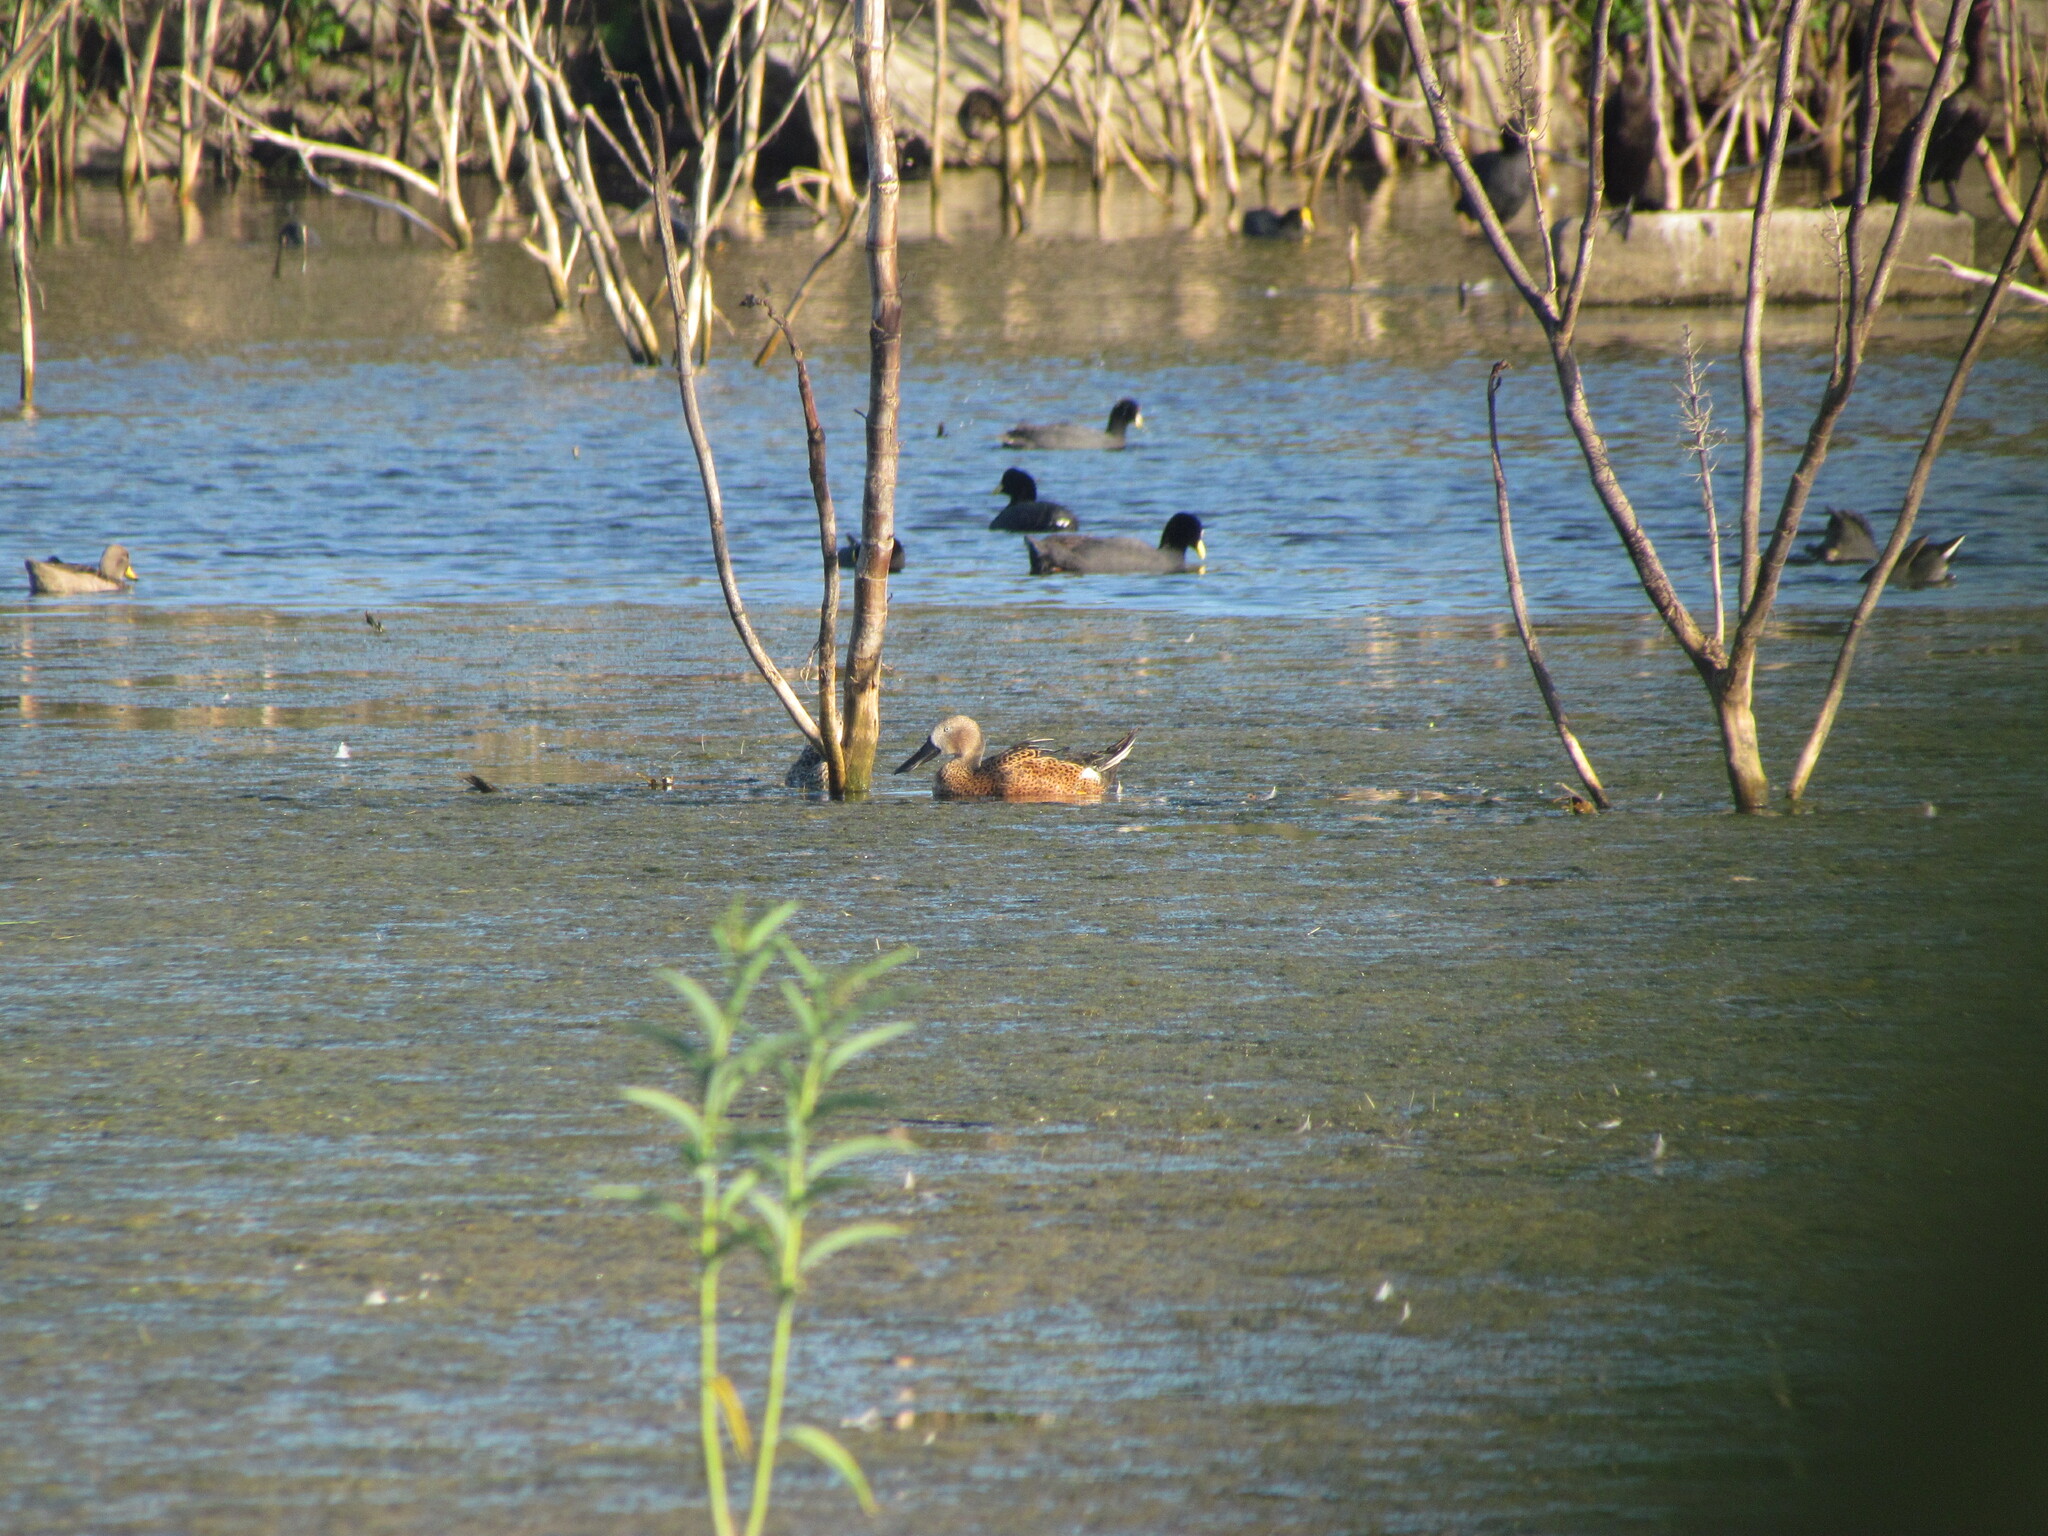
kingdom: Animalia
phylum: Chordata
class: Aves
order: Anseriformes
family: Anatidae
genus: Spatula
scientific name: Spatula platalea
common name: Red shoveler
